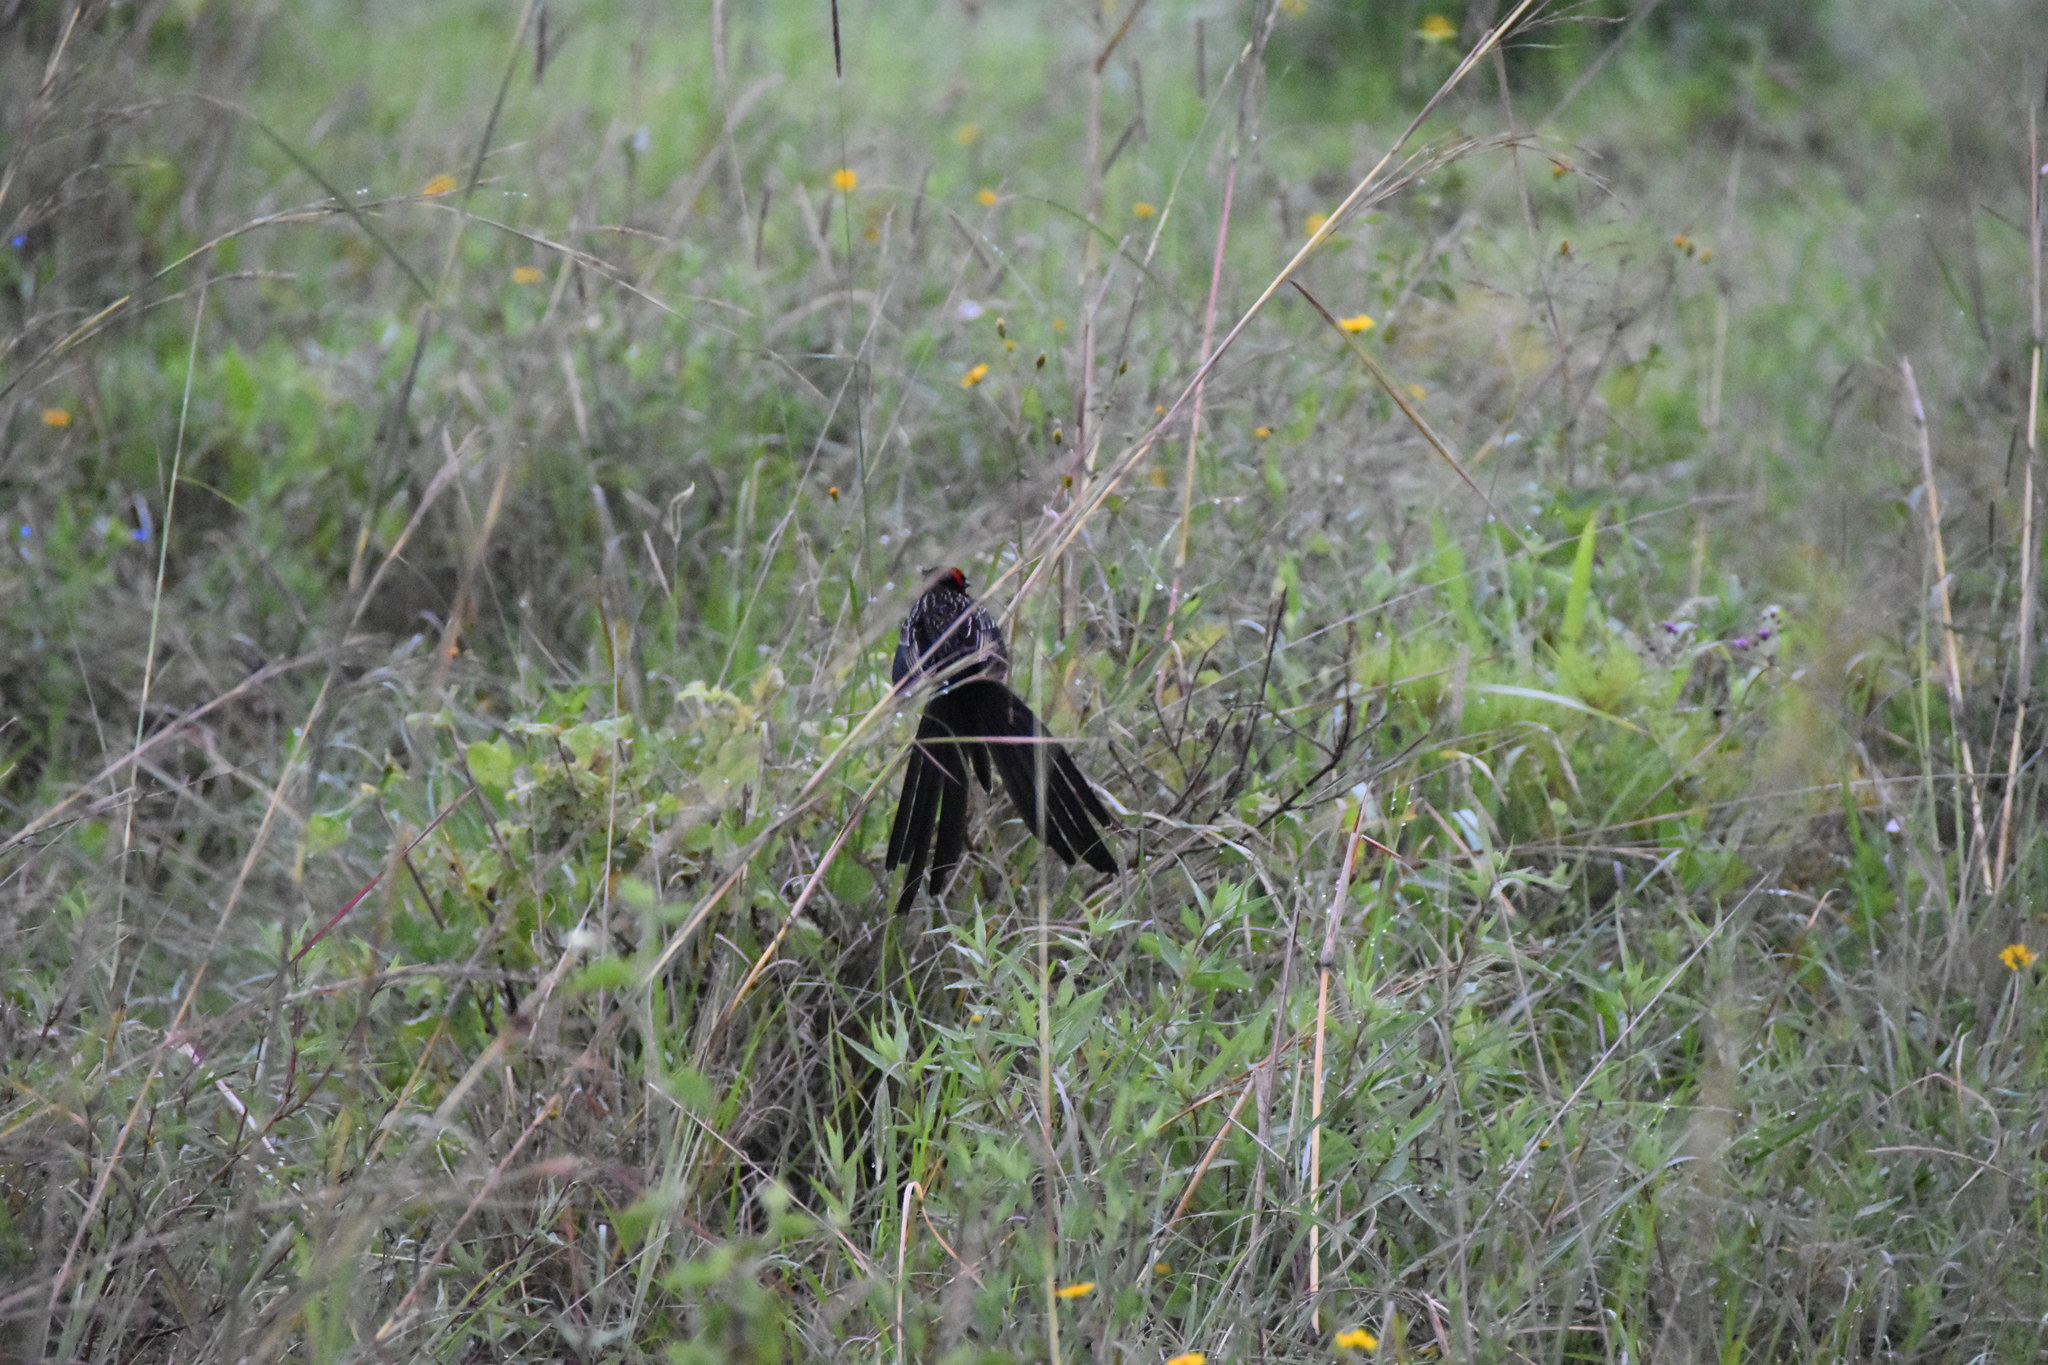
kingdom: Animalia
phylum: Chordata
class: Aves
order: Passeriformes
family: Ploceidae
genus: Euplectes
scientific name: Euplectes ardens
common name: Red-collared widowbird
